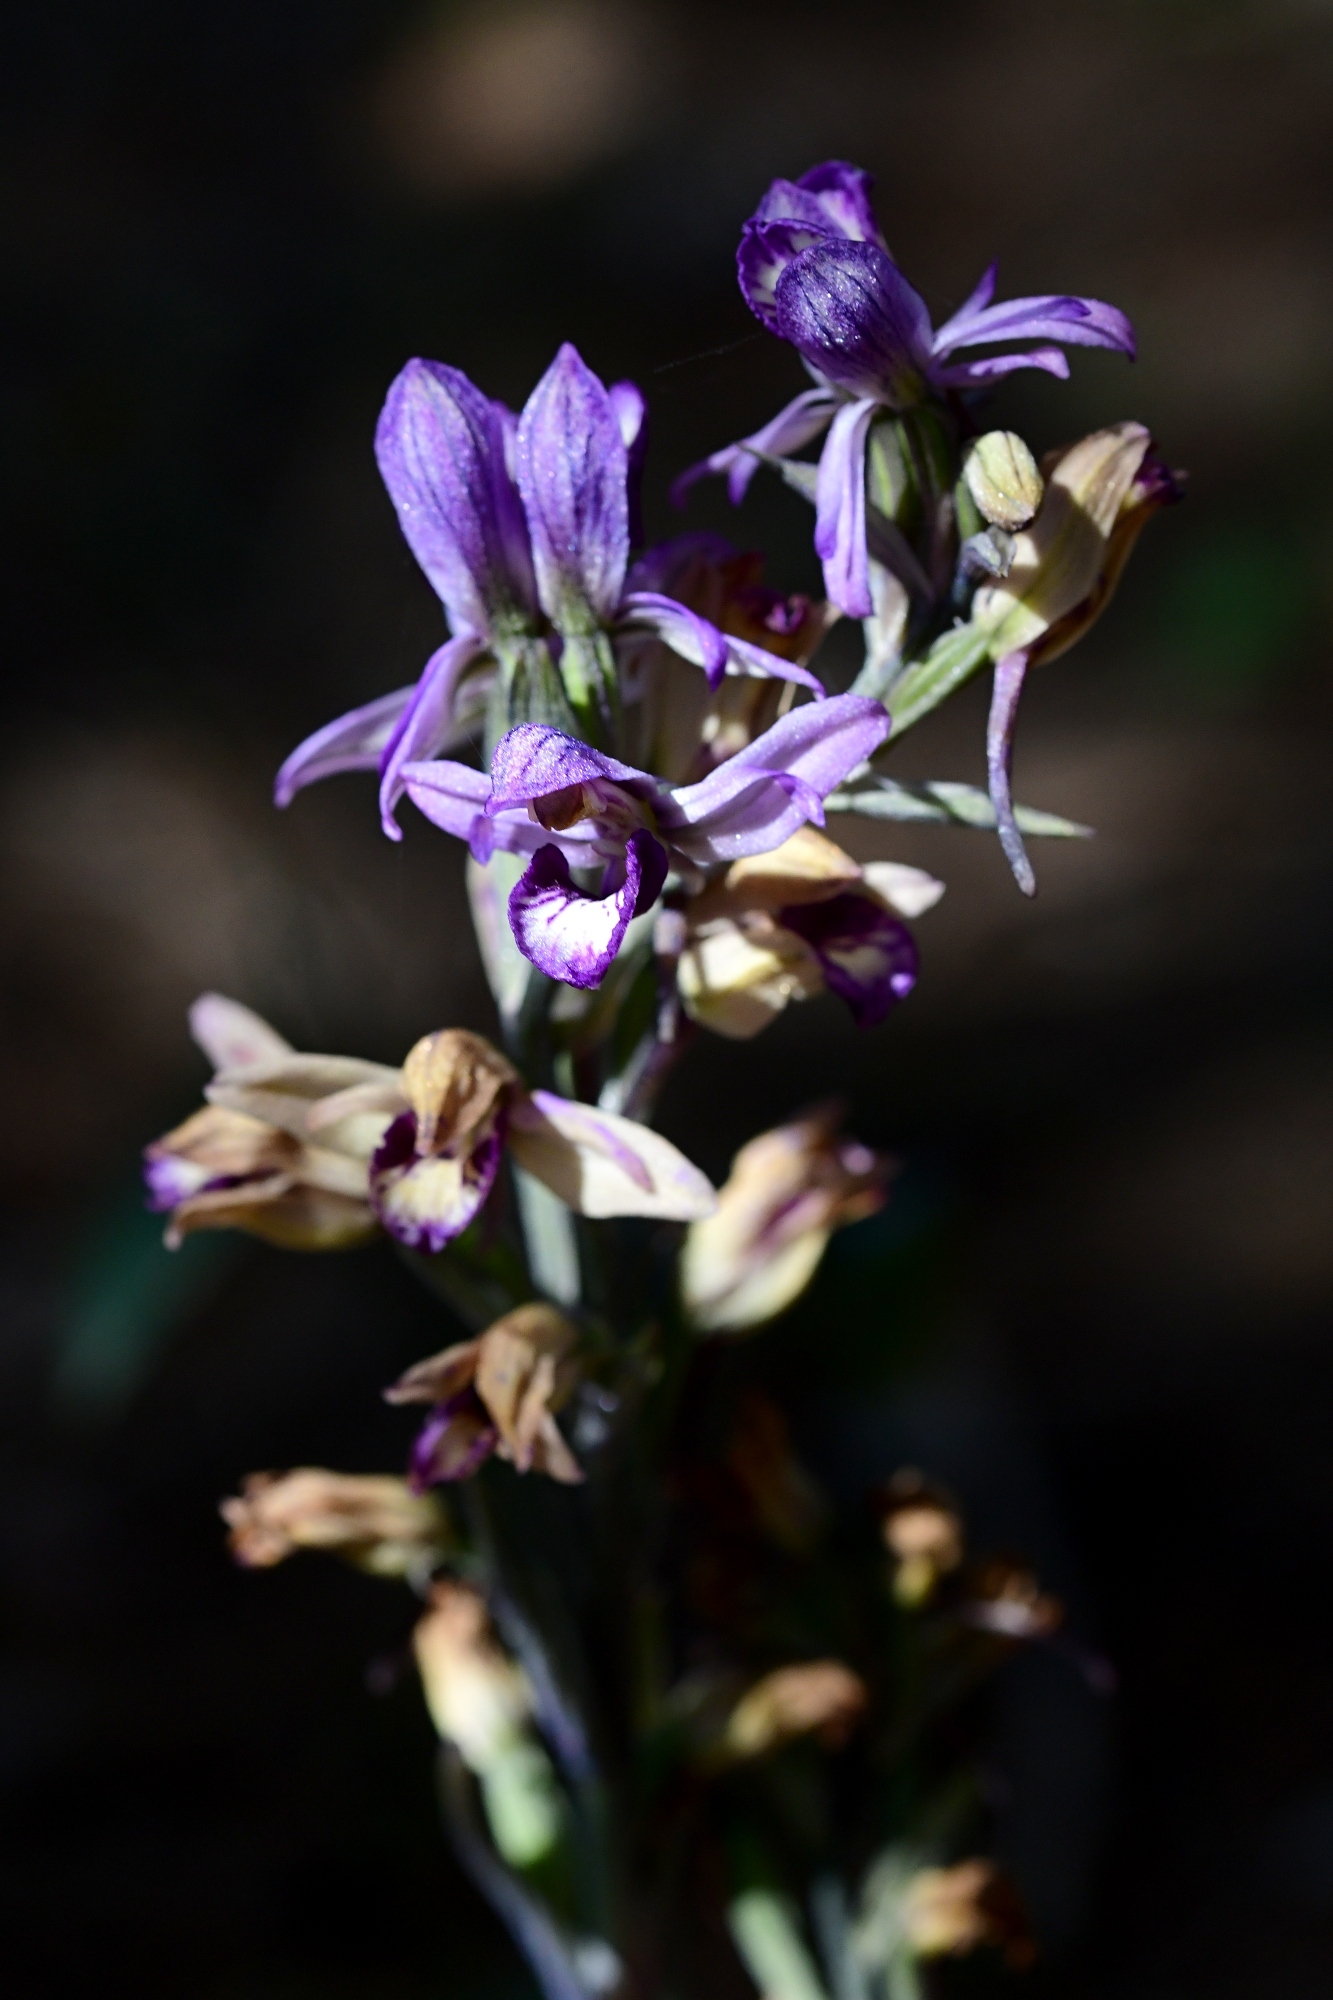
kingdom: Plantae
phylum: Tracheophyta
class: Liliopsida
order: Asparagales
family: Orchidaceae
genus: Limodorum
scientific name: Limodorum abortivum
